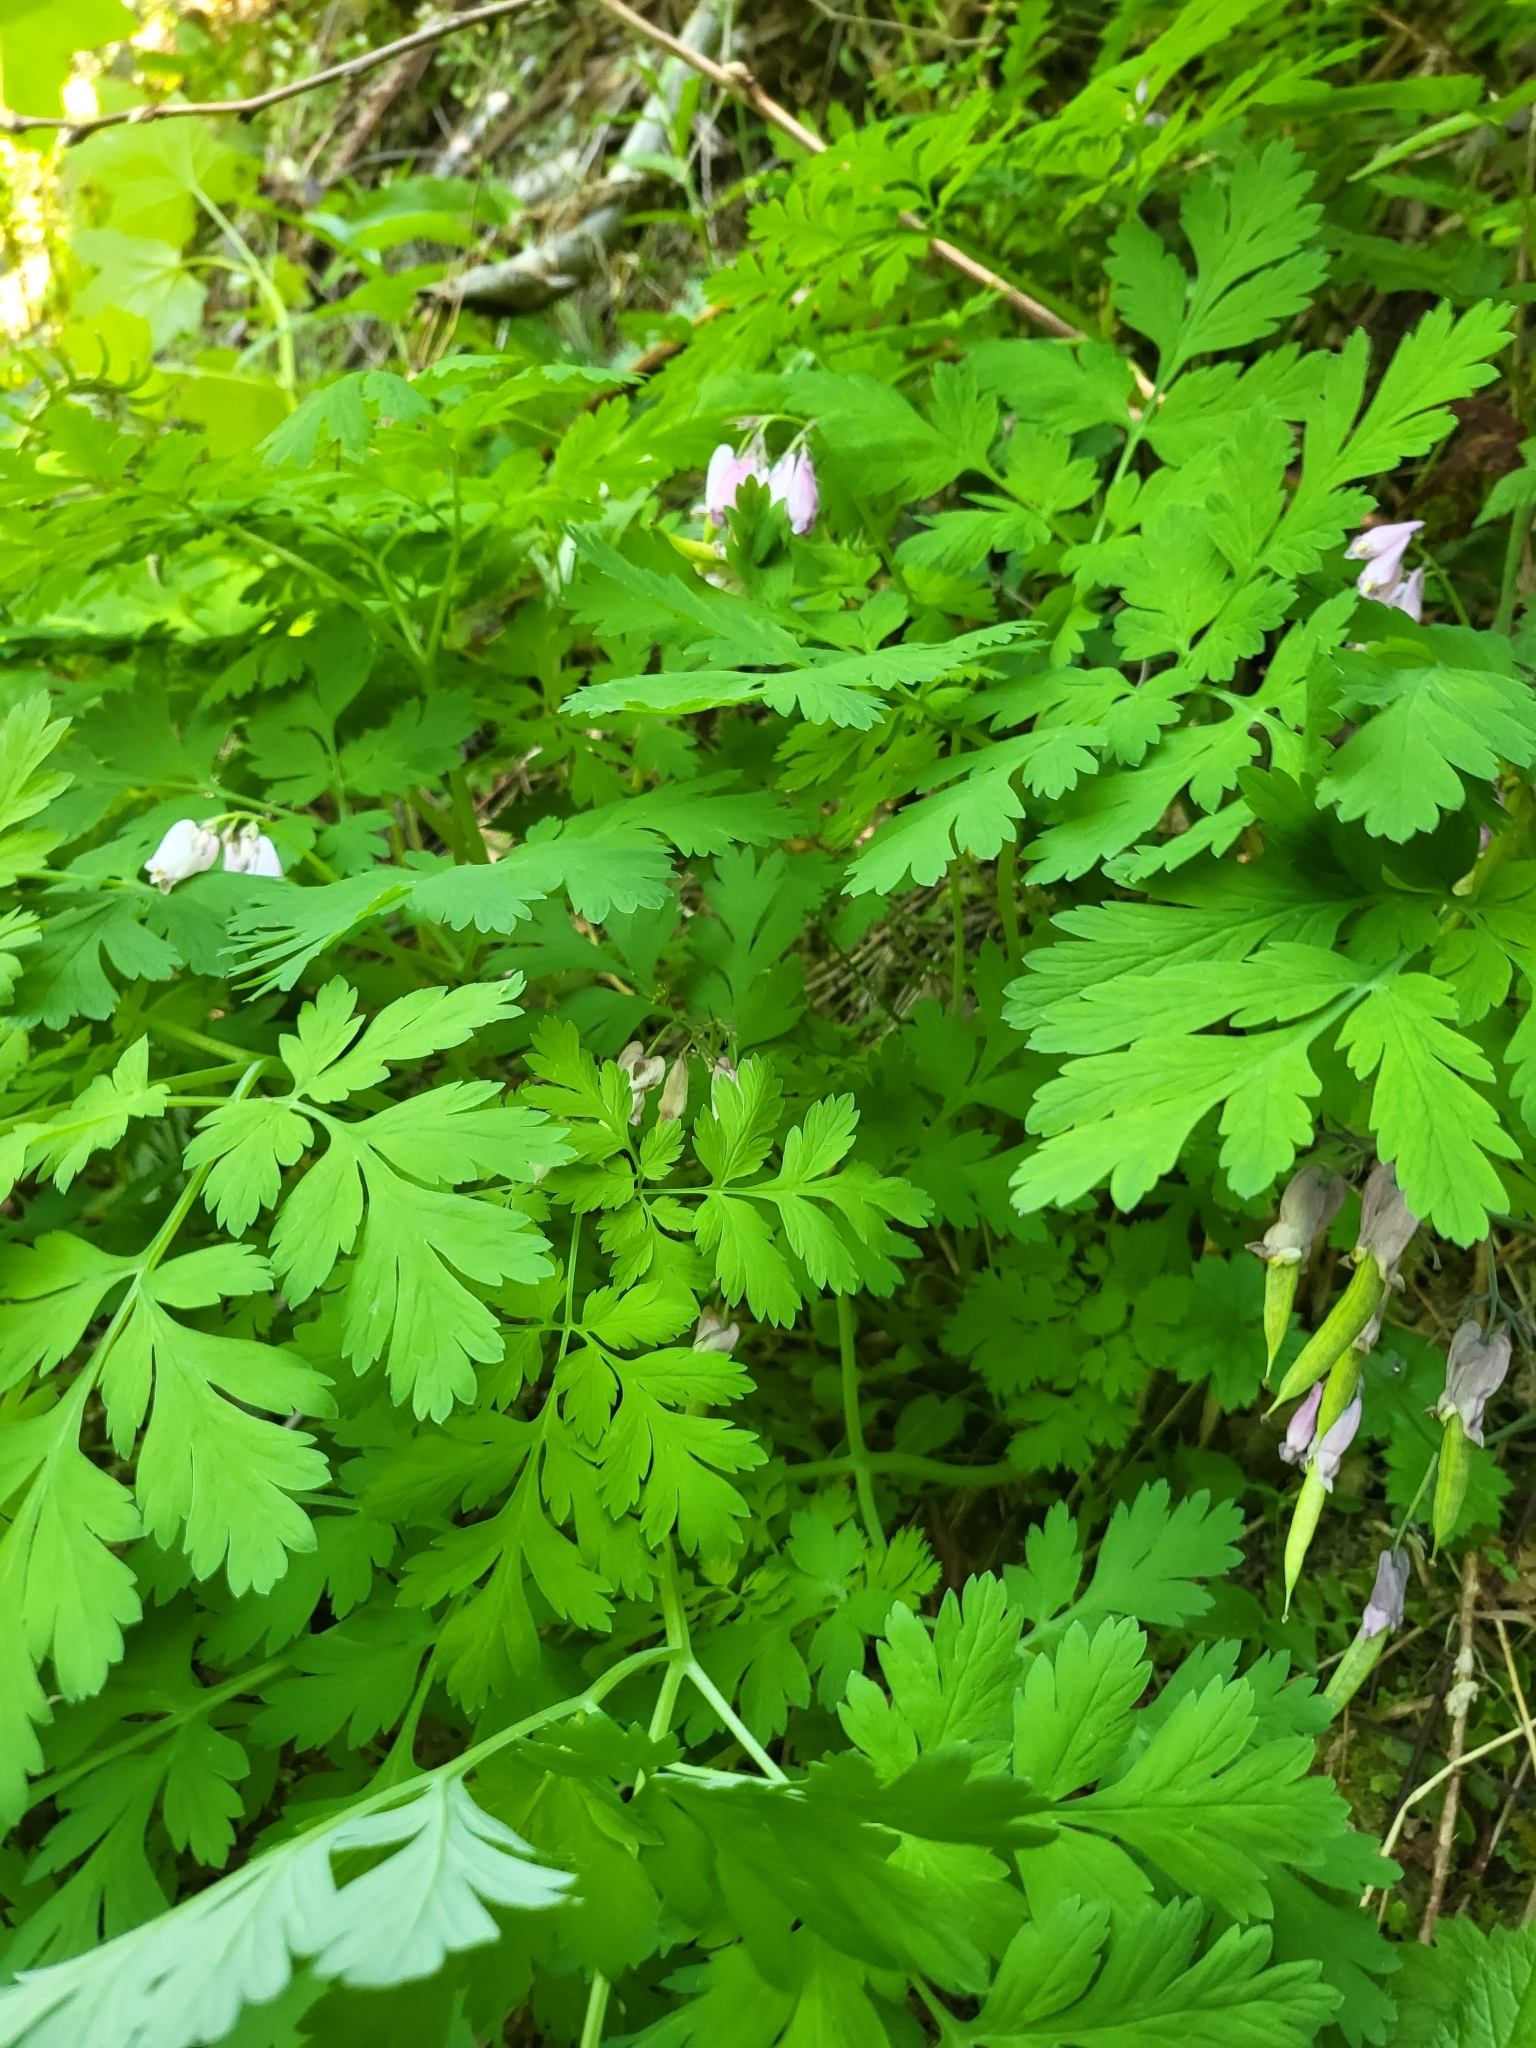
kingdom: Plantae
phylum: Tracheophyta
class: Magnoliopsida
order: Ranunculales
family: Papaveraceae
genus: Dicentra
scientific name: Dicentra formosa
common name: Bleeding-heart
